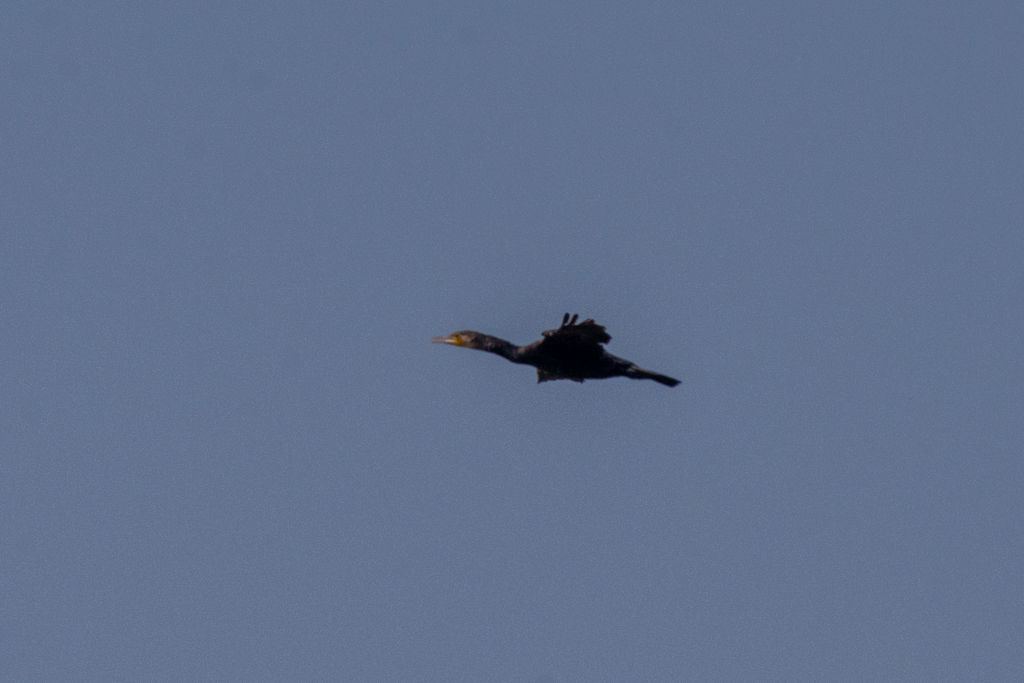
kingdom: Animalia
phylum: Chordata
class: Aves
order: Suliformes
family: Phalacrocoracidae
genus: Phalacrocorax
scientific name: Phalacrocorax carbo
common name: Great cormorant
